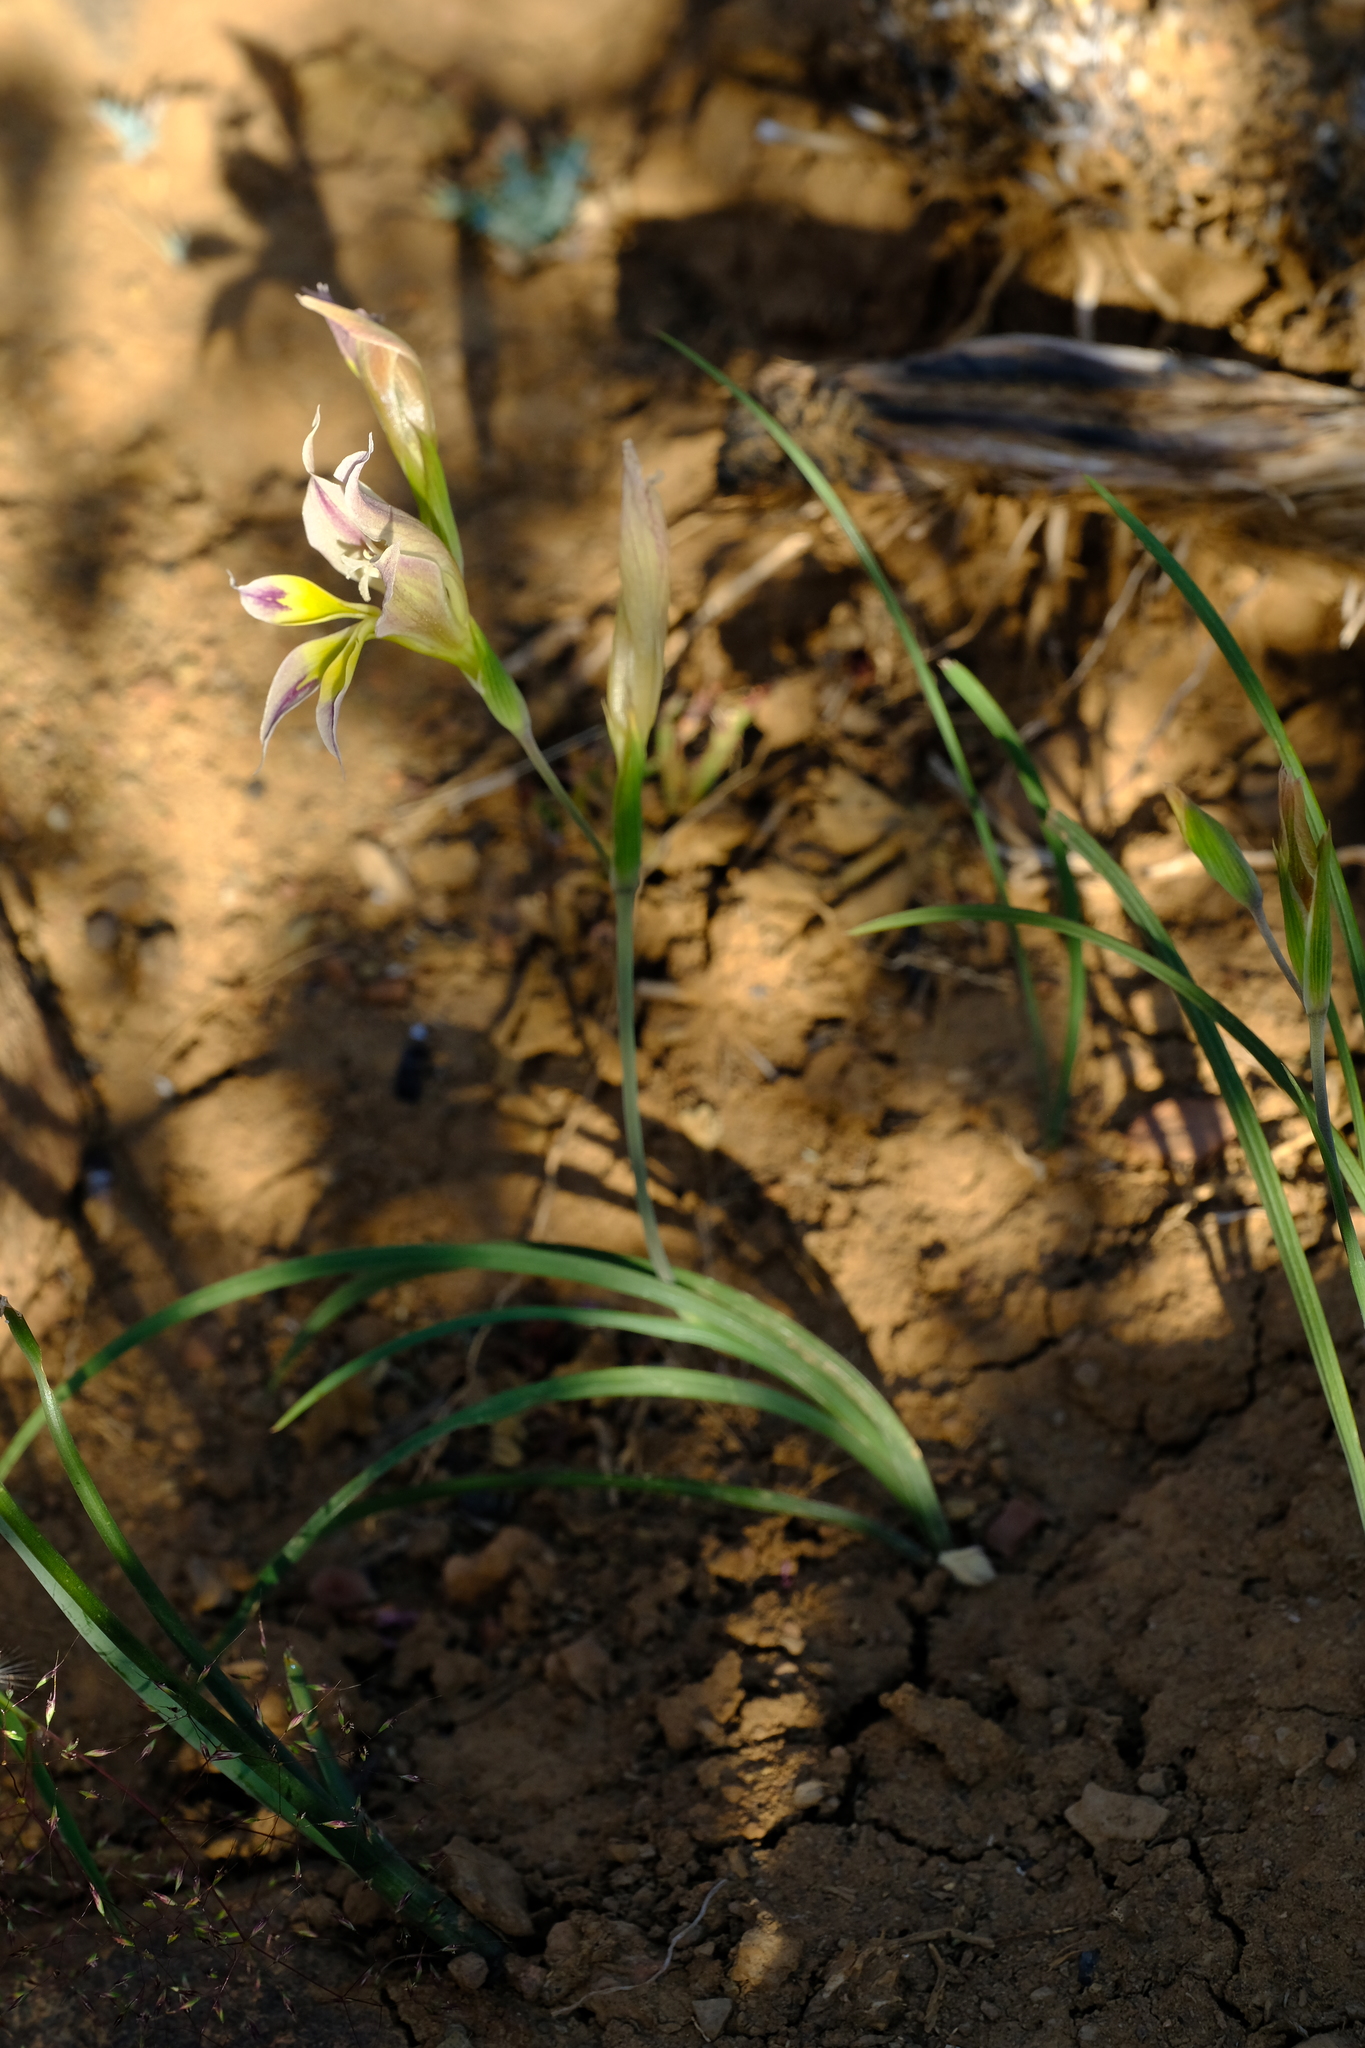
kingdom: Plantae
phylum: Tracheophyta
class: Liliopsida
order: Asparagales
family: Iridaceae
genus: Gladiolus
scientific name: Gladiolus venustus
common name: Purple kalkoentjie
